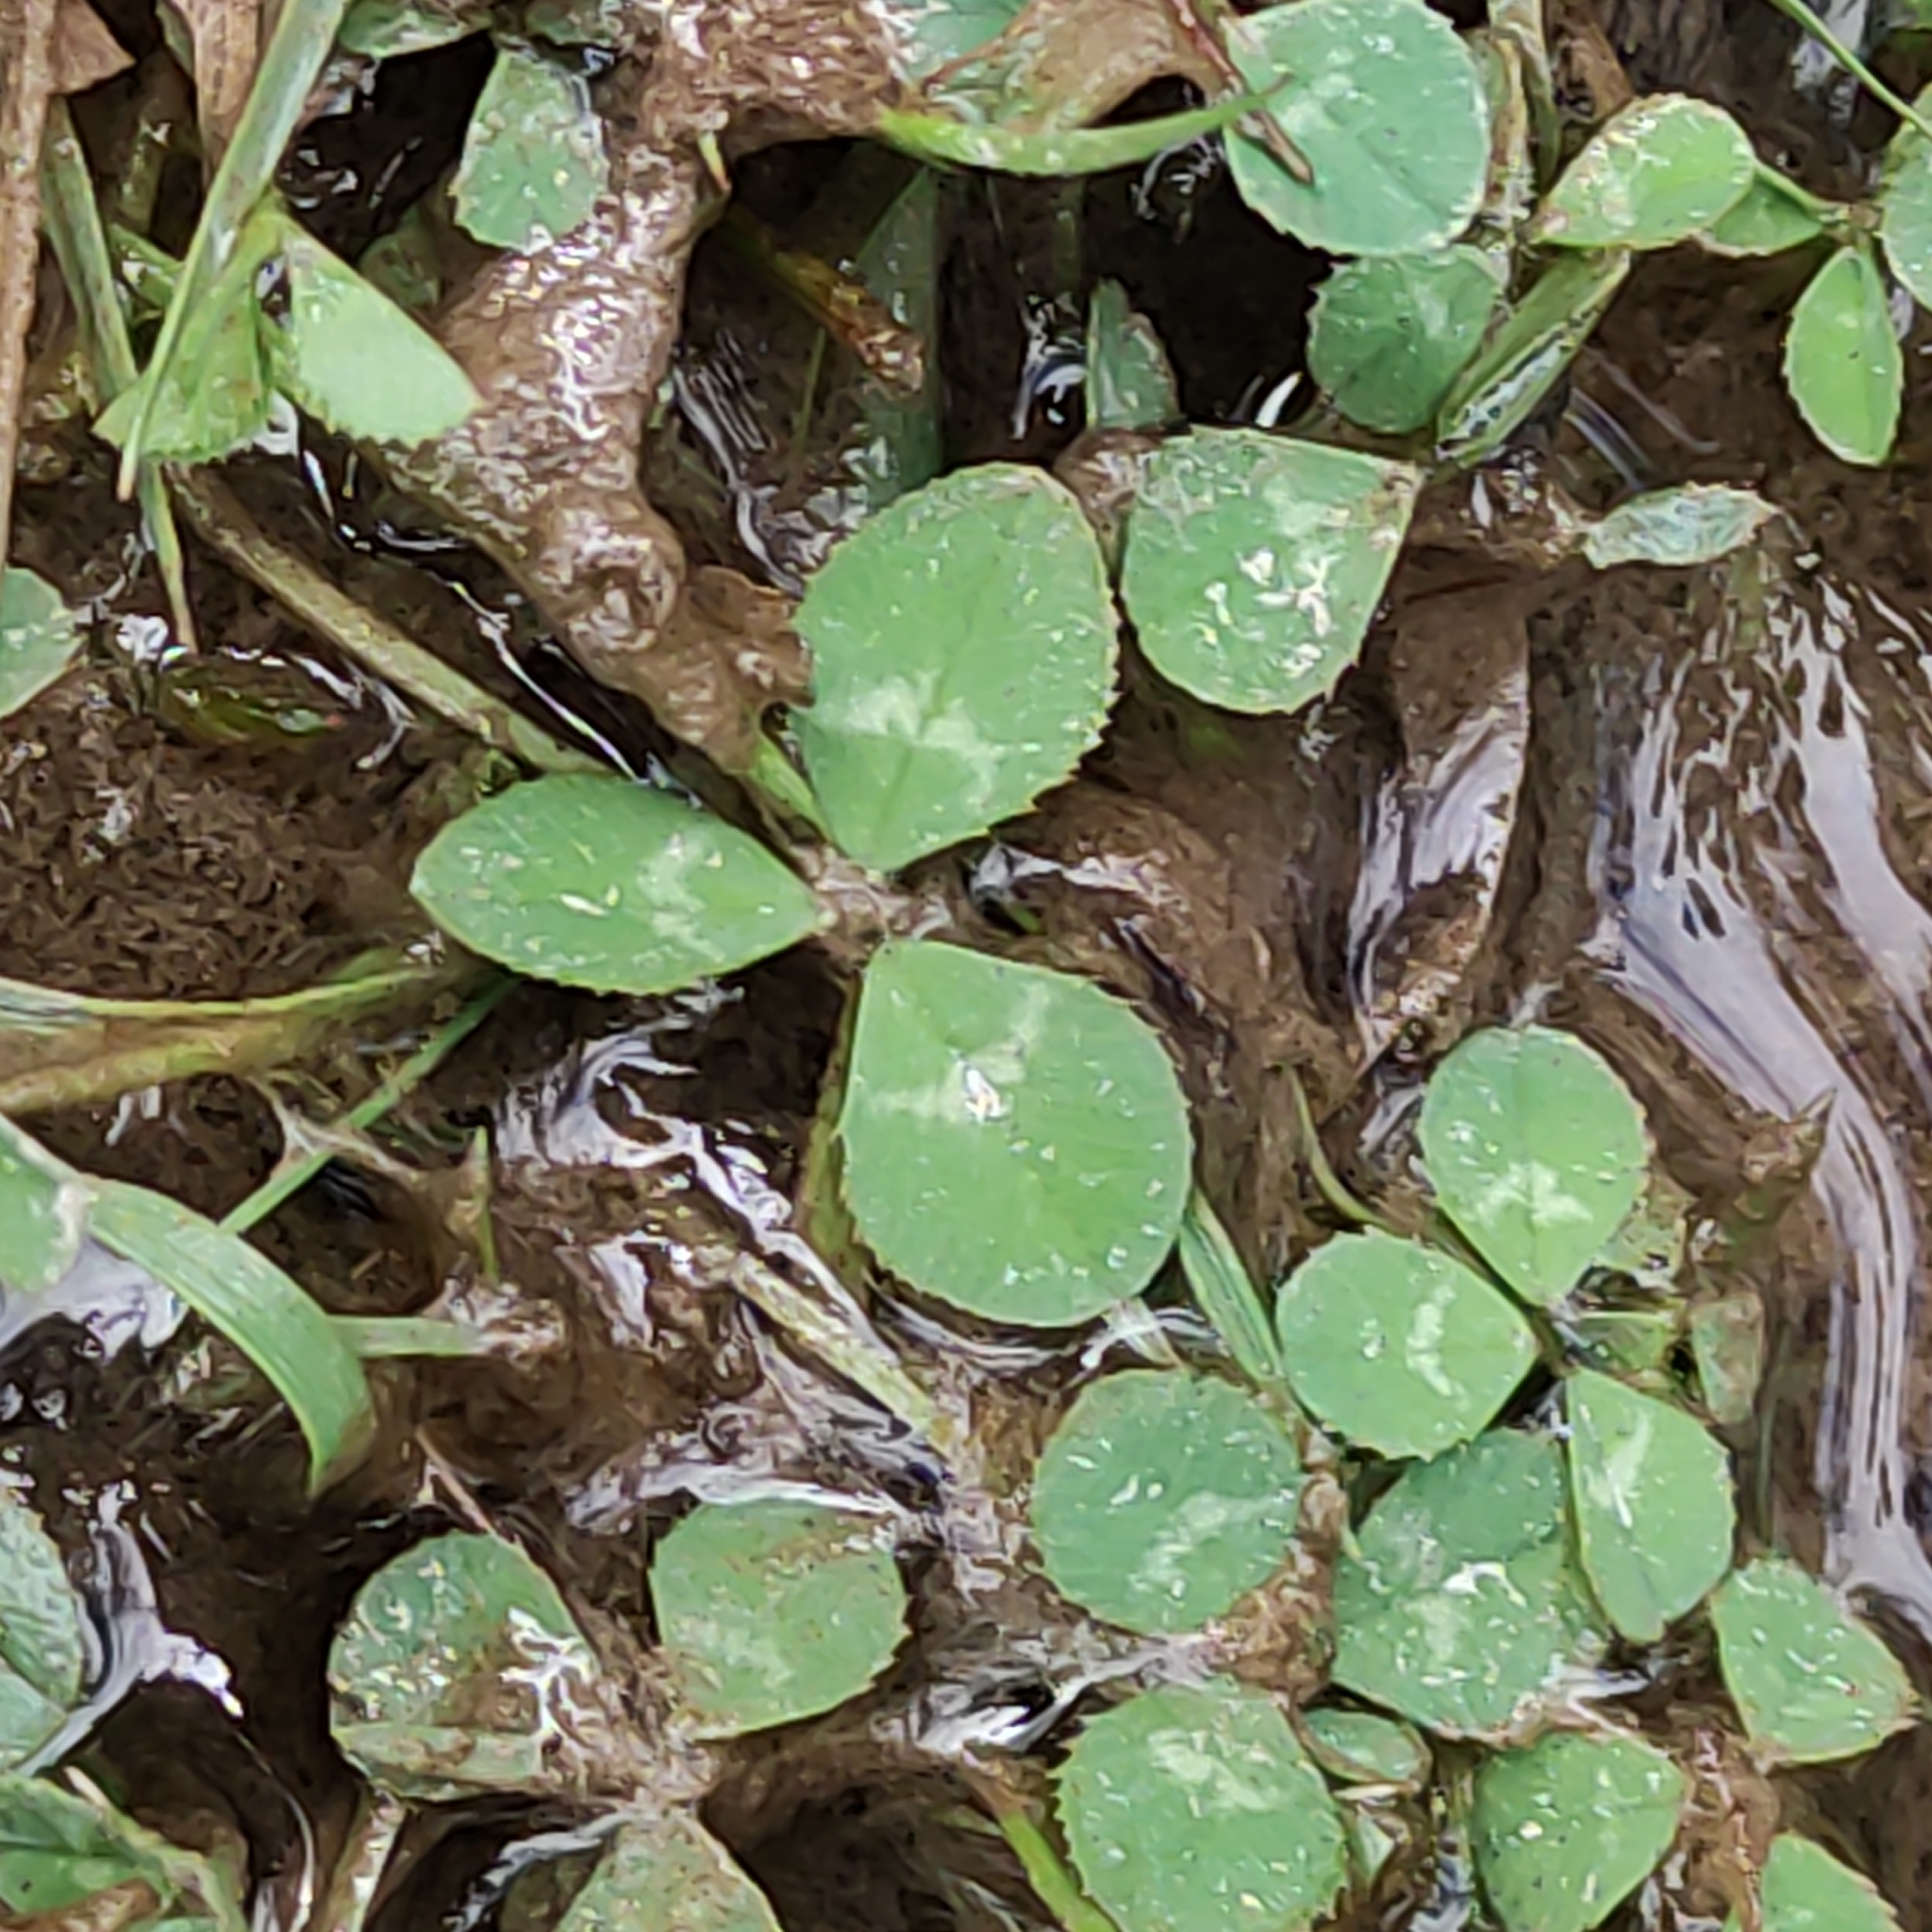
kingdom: Plantae
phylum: Tracheophyta
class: Magnoliopsida
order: Fabales
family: Fabaceae
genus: Trifolium
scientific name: Trifolium repens
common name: White clover
